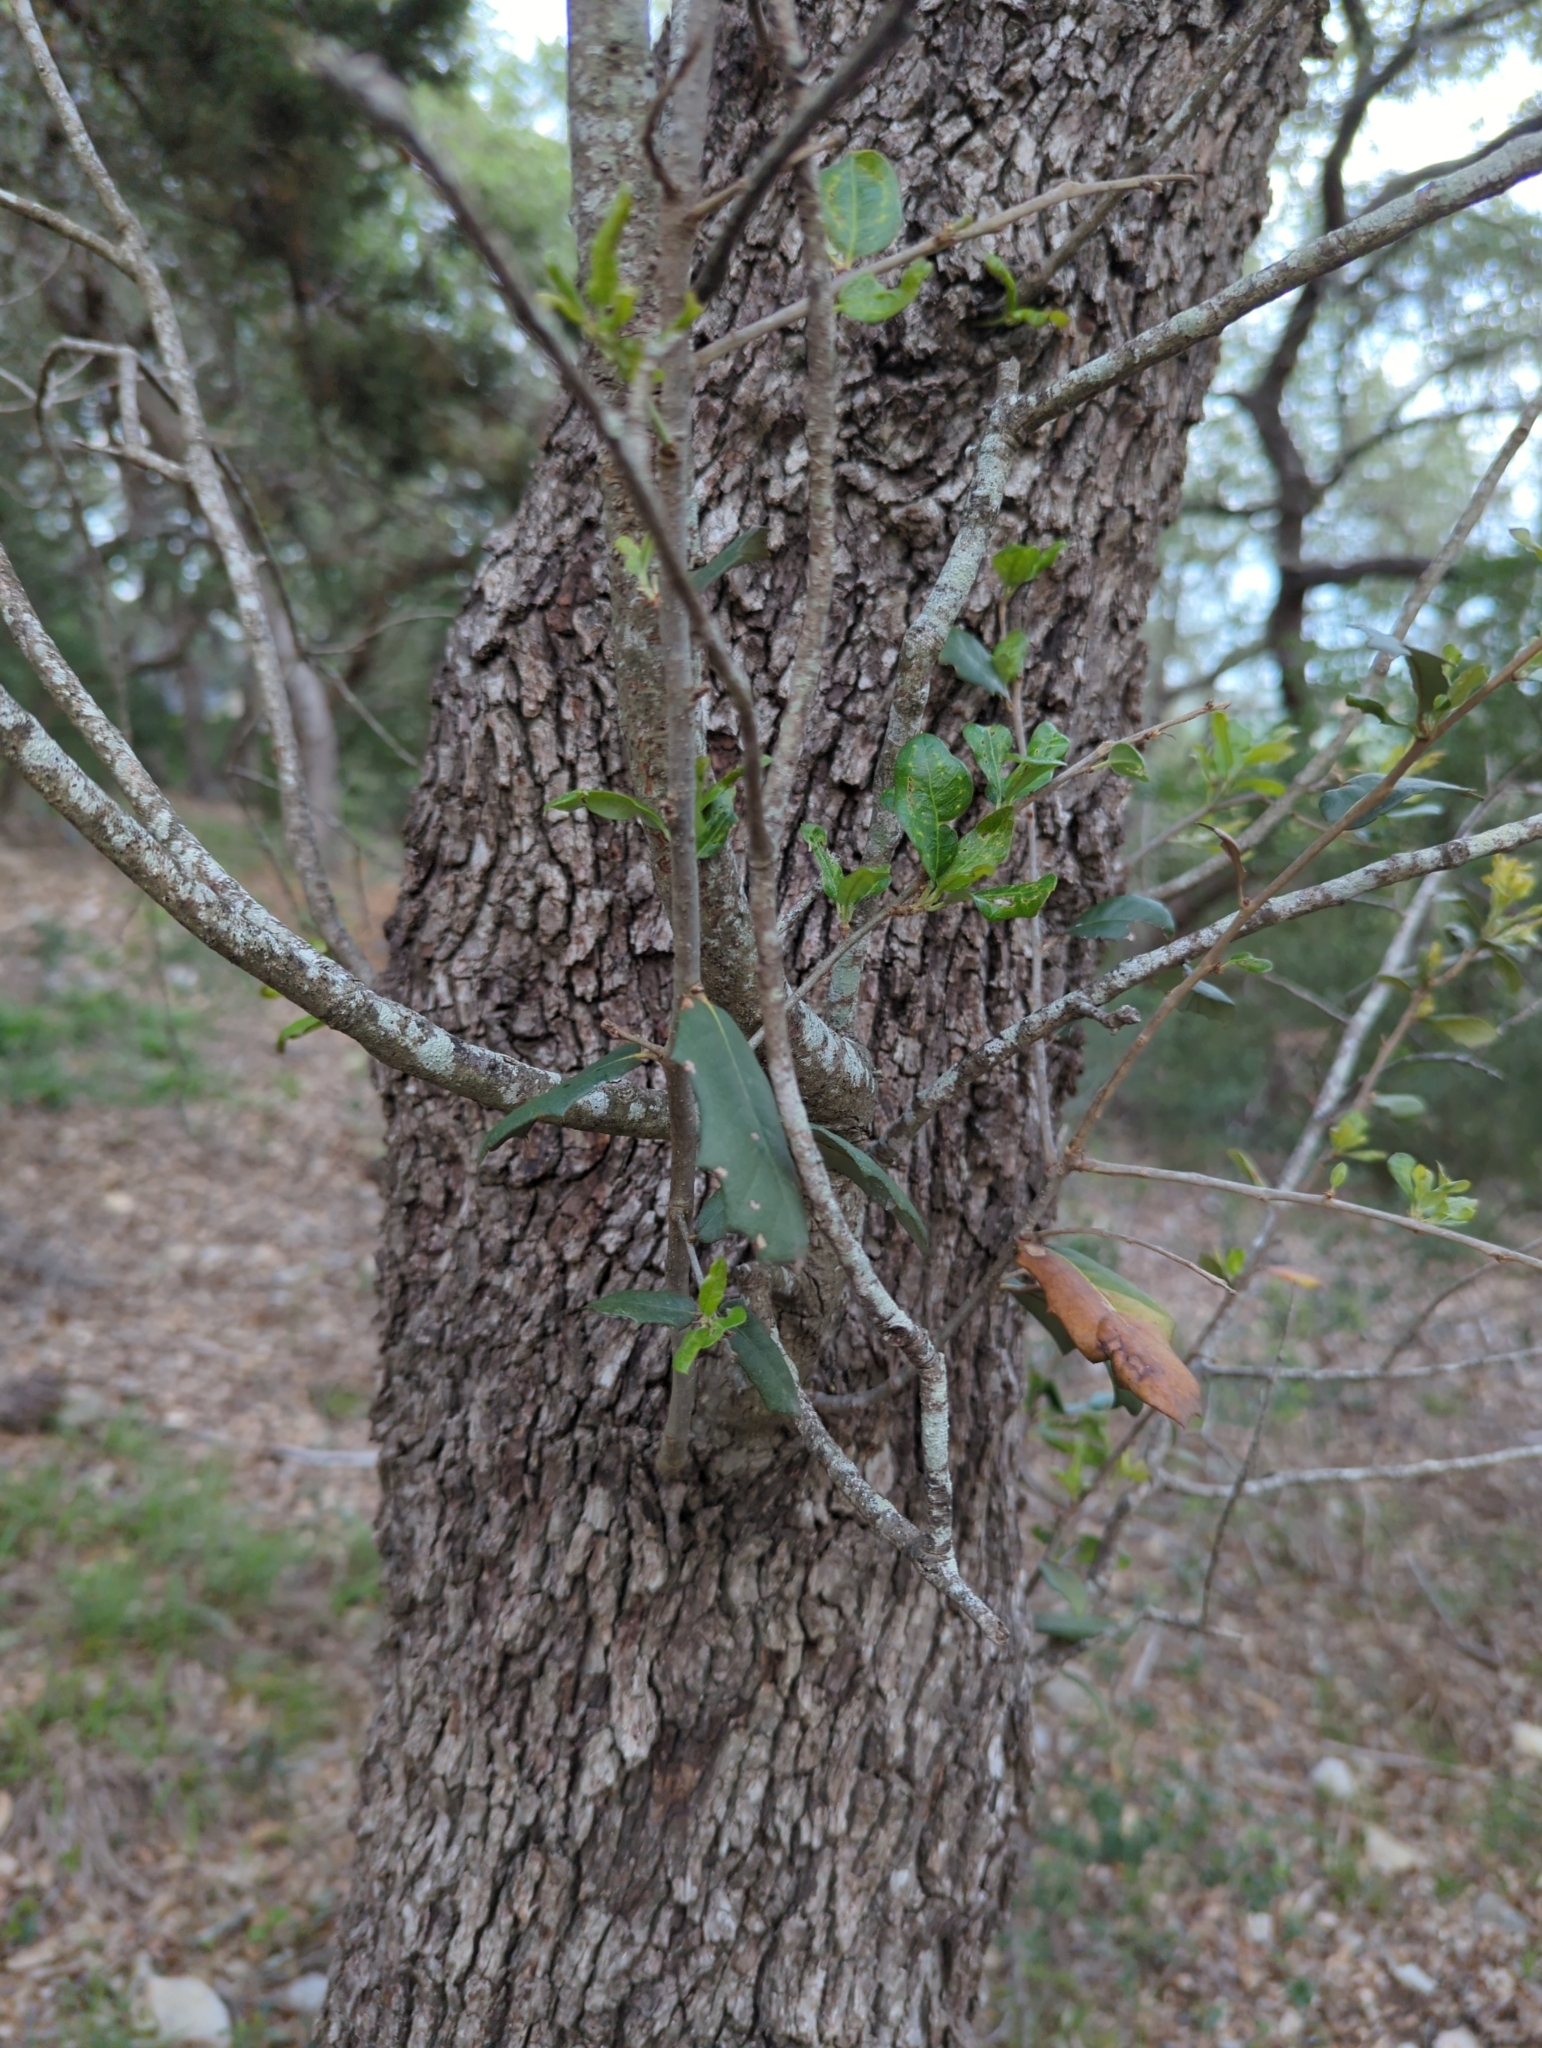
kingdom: Plantae
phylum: Tracheophyta
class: Magnoliopsida
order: Fagales
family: Fagaceae
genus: Quercus
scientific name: Quercus fusiformis
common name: Texas live oak
